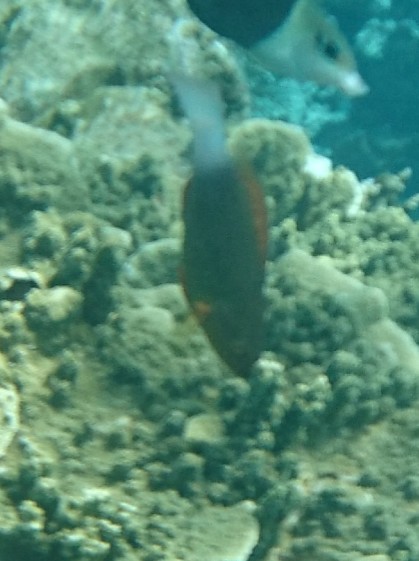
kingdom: Animalia
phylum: Chordata
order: Perciformes
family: Scaridae
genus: Scarus
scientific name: Scarus frenatus
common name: Bridled parrotfish
